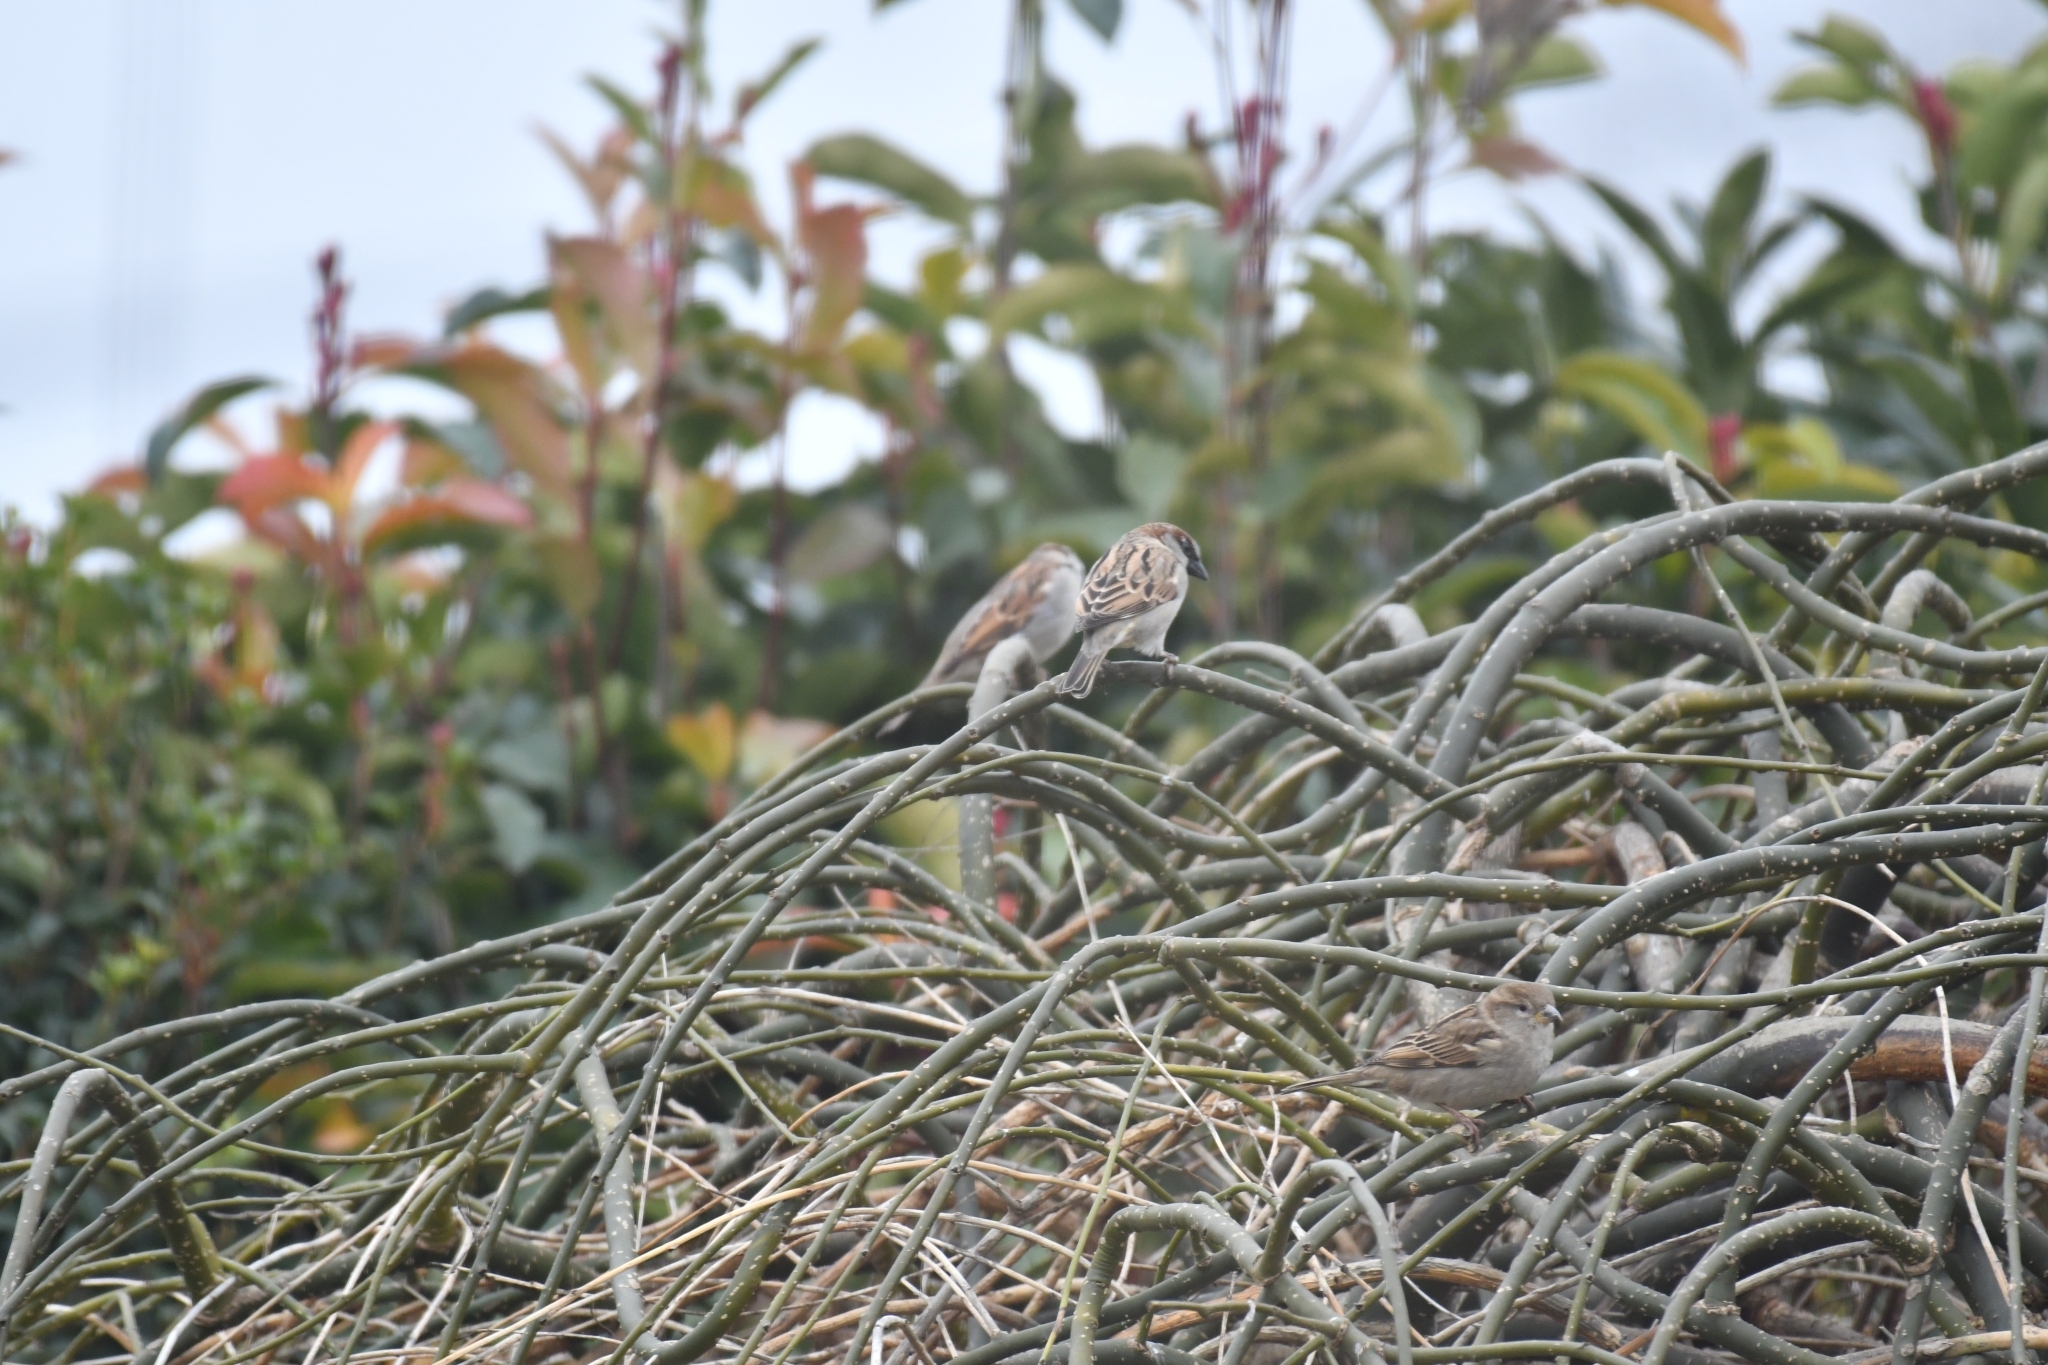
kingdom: Animalia
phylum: Chordata
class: Aves
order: Passeriformes
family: Passeridae
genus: Passer
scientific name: Passer domesticus
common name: House sparrow
